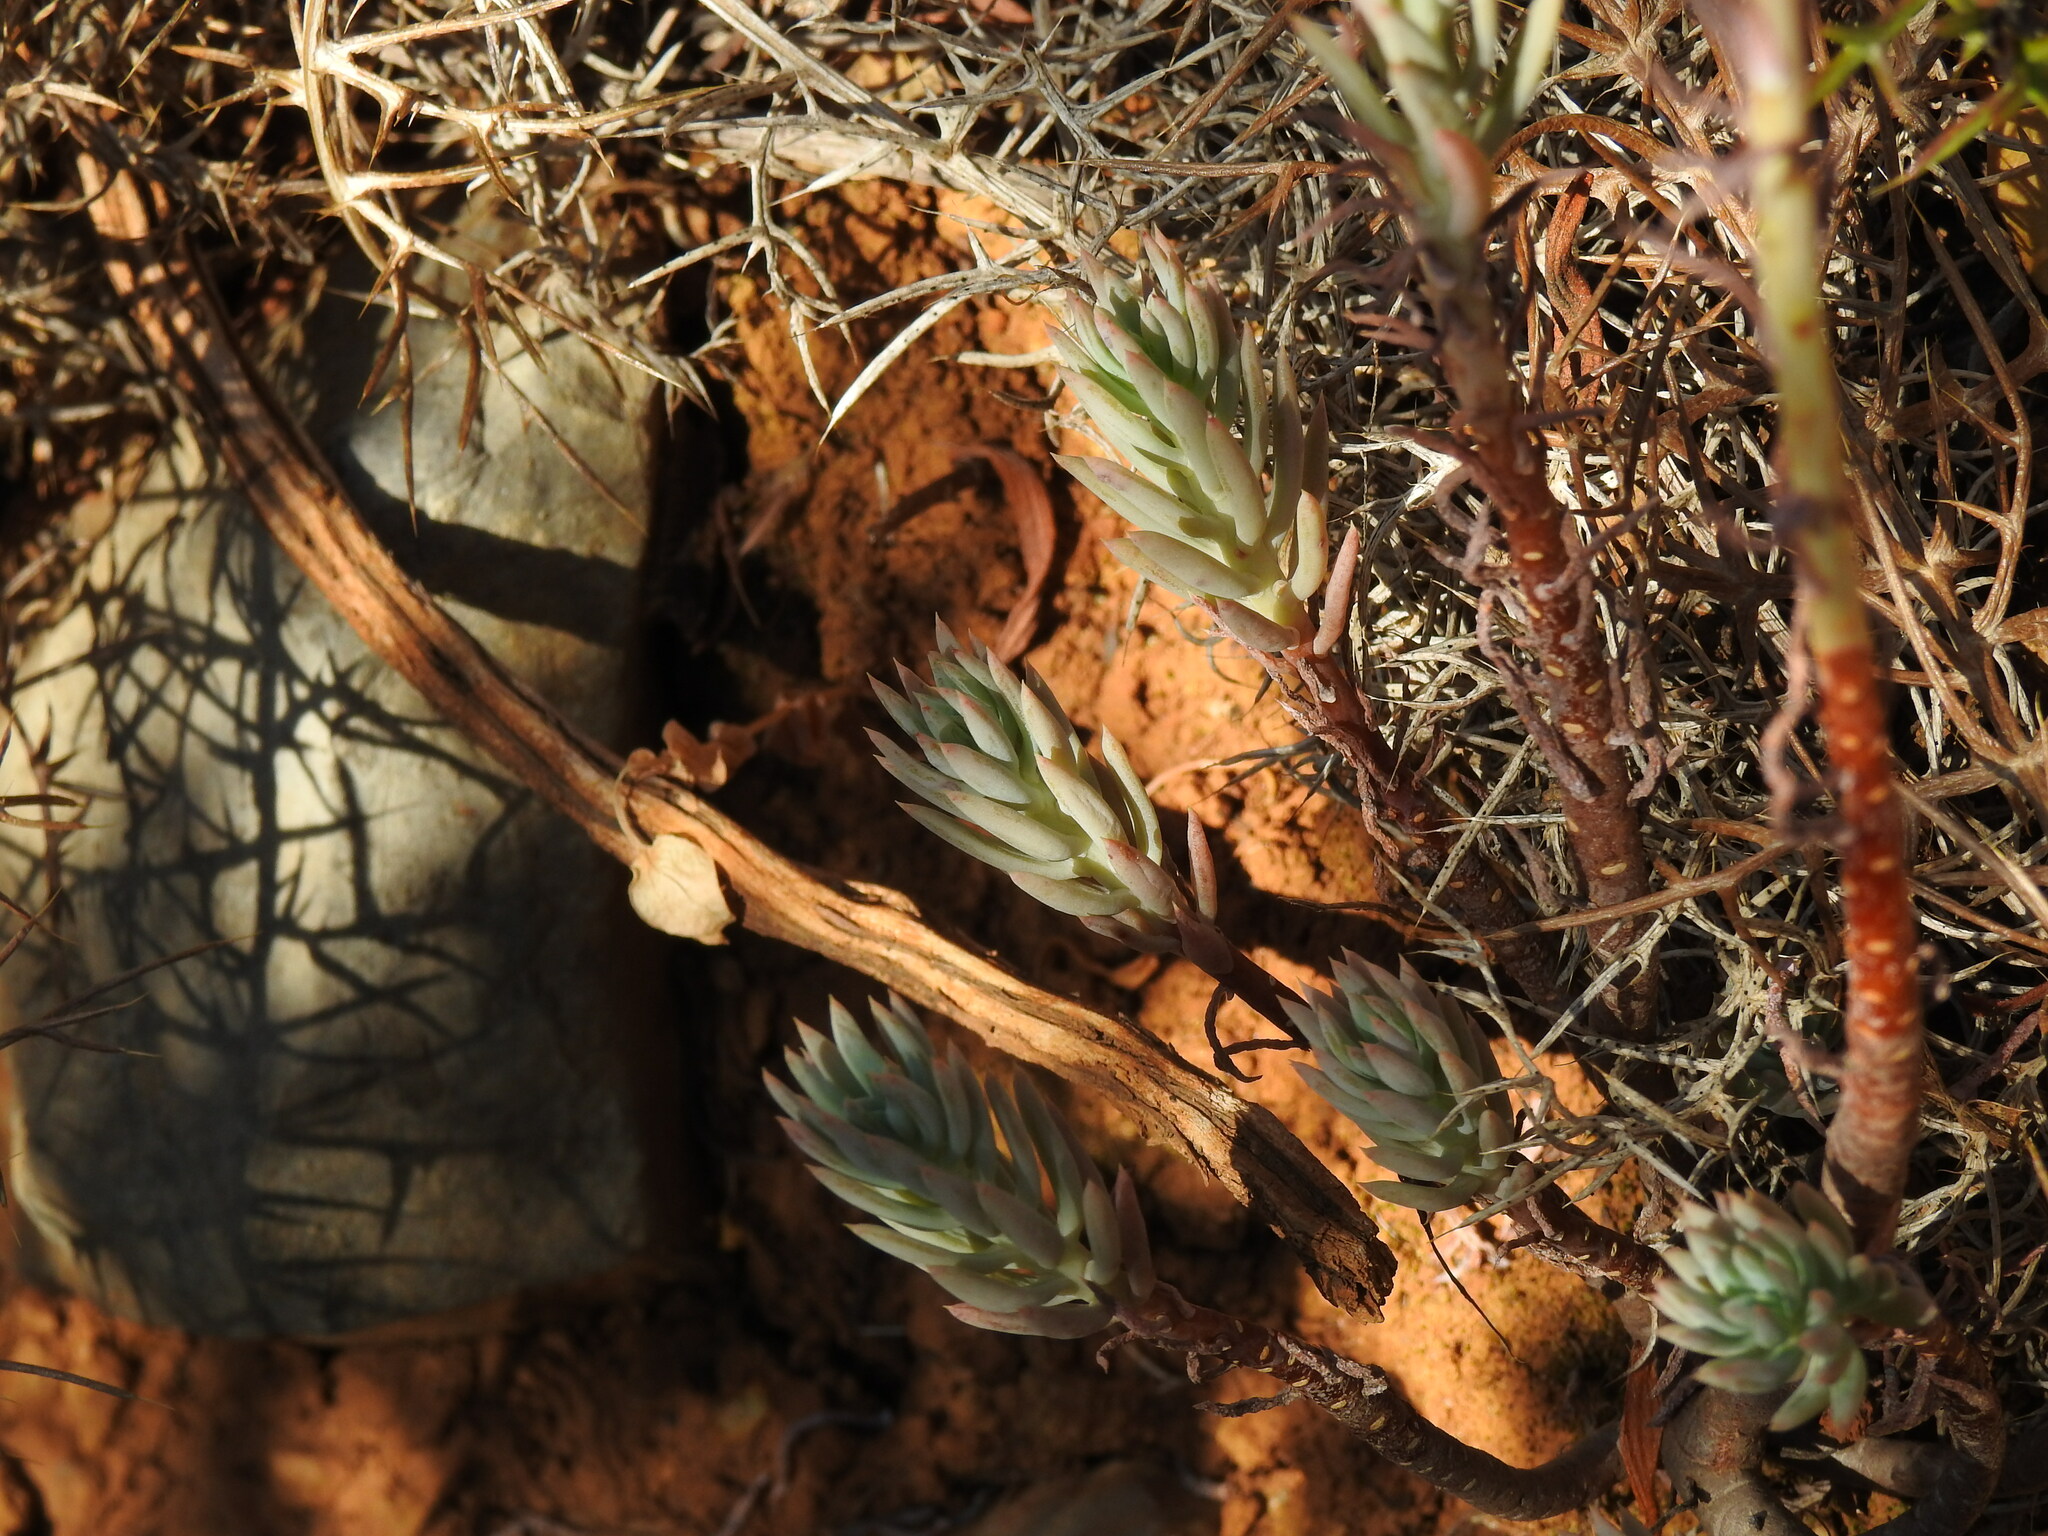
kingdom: Plantae
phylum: Tracheophyta
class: Magnoliopsida
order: Saxifragales
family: Crassulaceae
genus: Petrosedum
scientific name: Petrosedum sediforme
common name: Pale stonecrop
